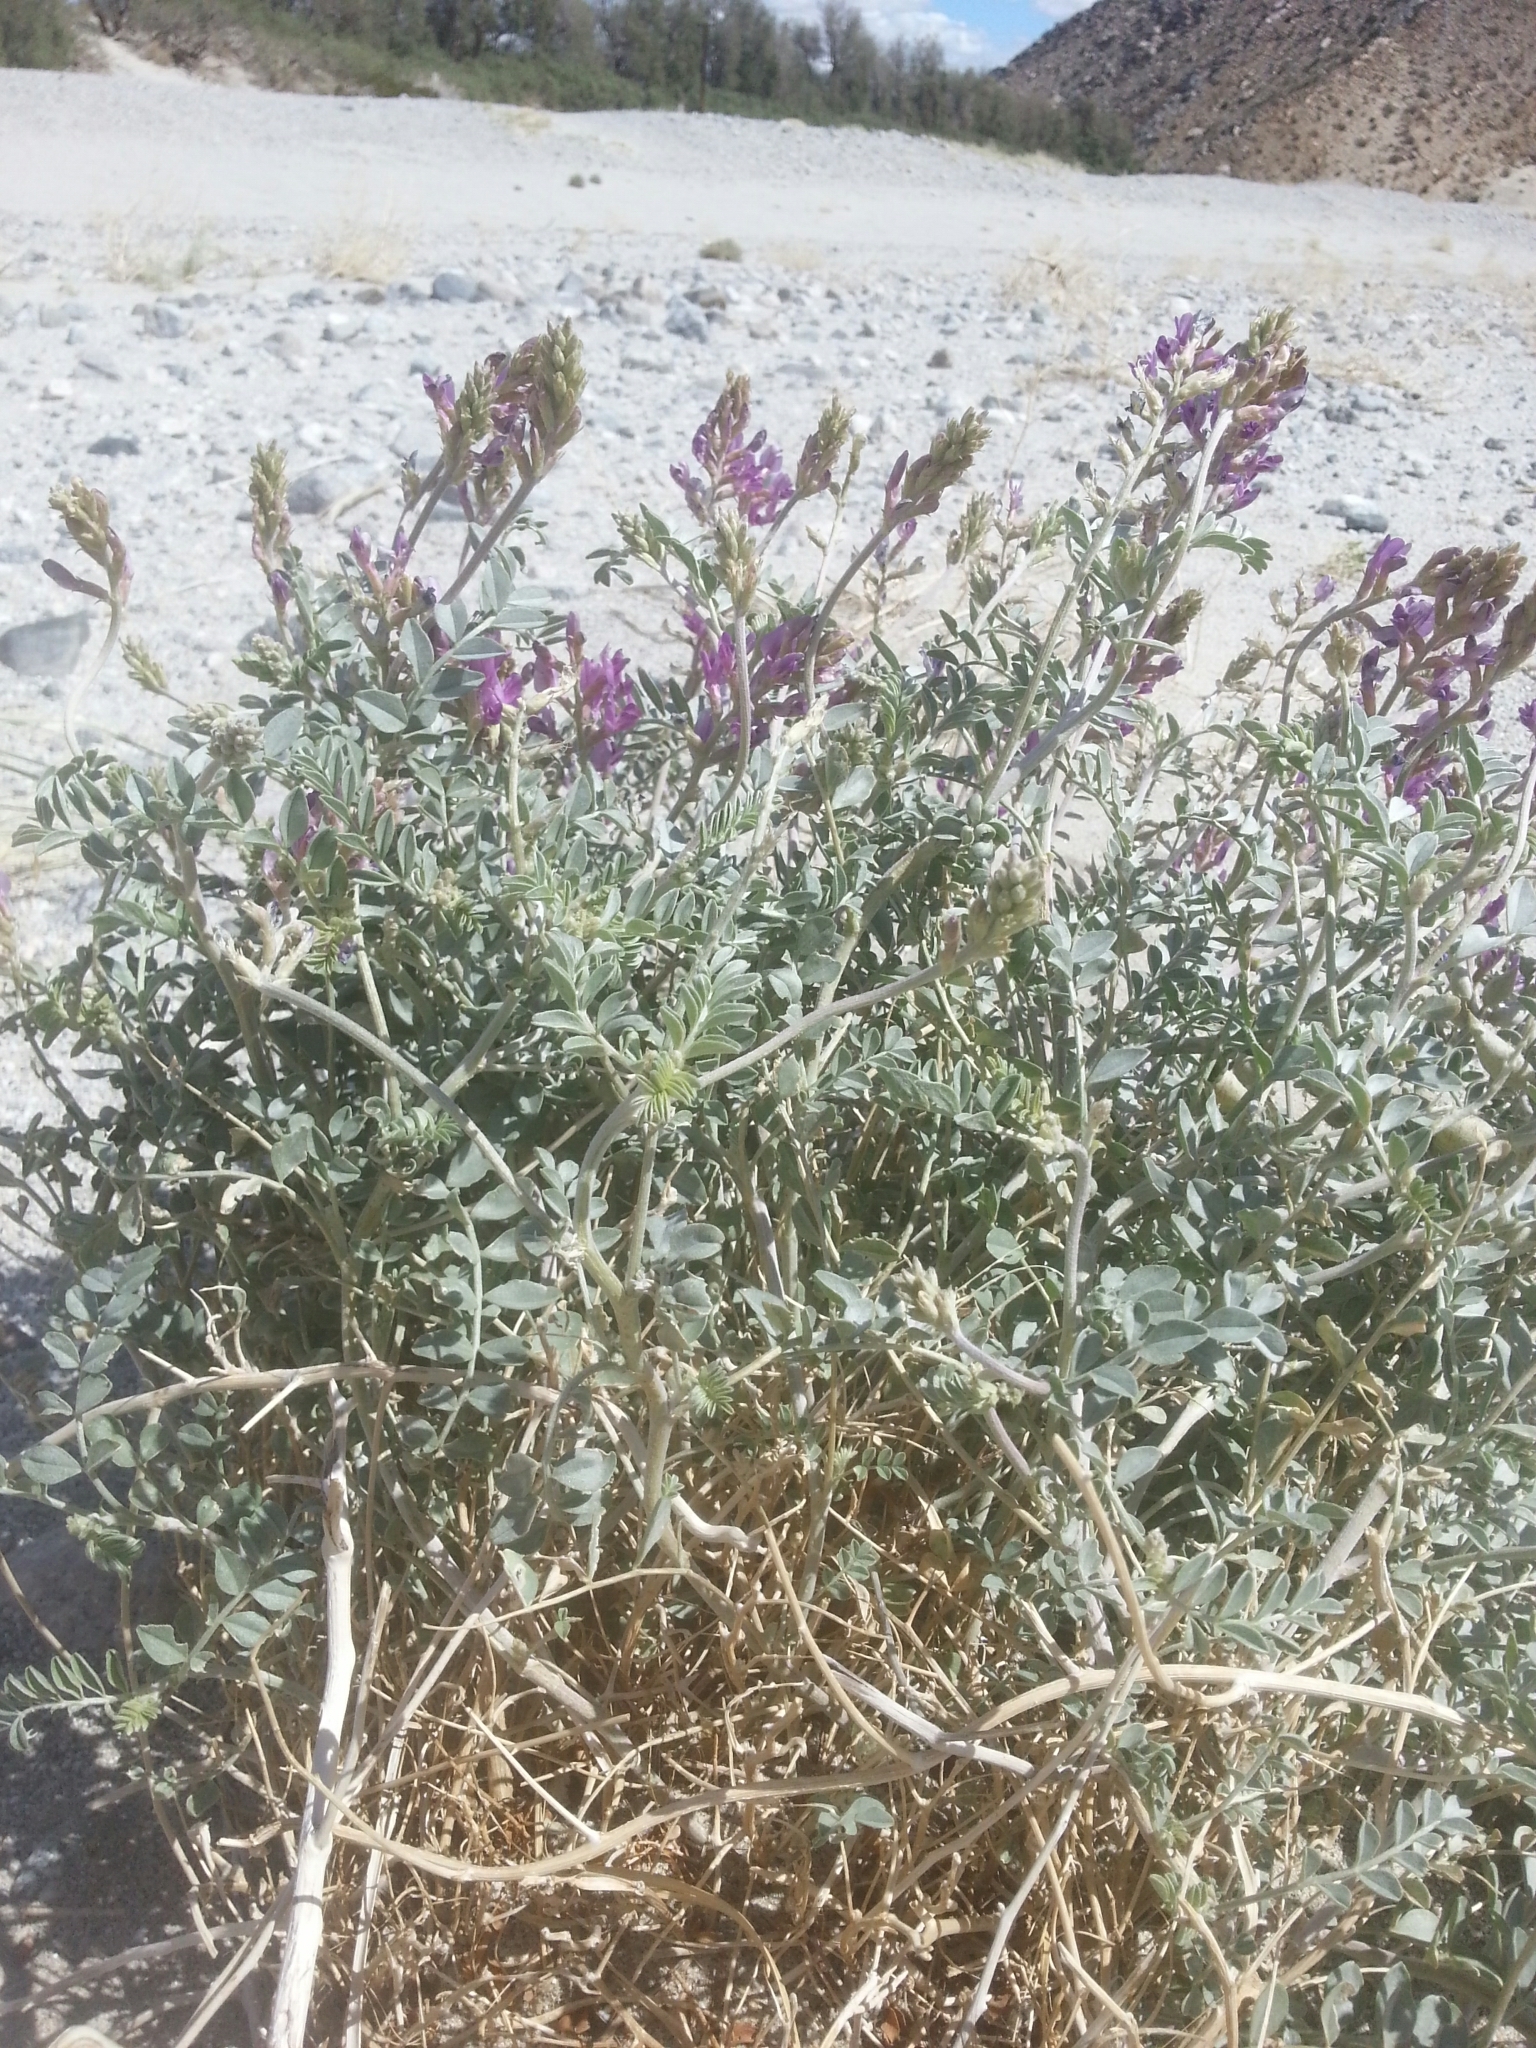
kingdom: Plantae
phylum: Tracheophyta
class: Magnoliopsida
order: Fabales
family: Fabaceae
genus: Astragalus
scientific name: Astragalus lentiginosus
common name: Freckled milkvetch
